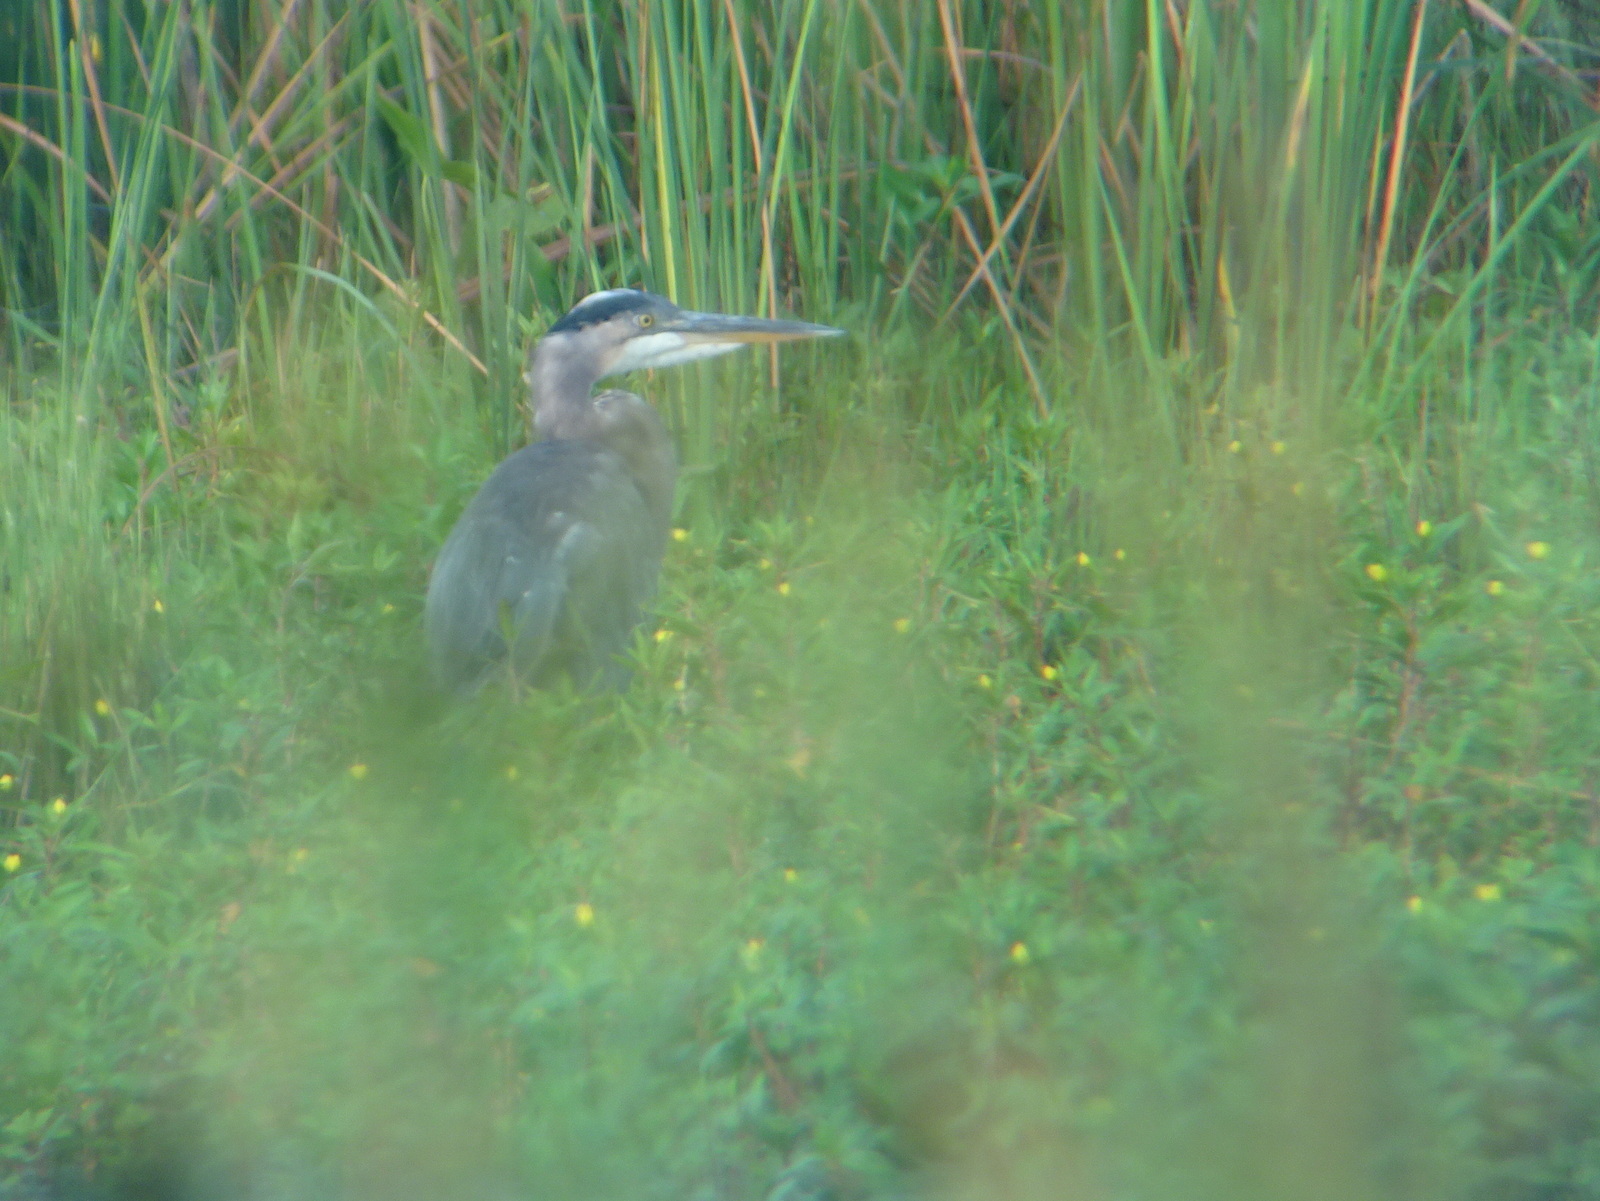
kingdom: Animalia
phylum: Chordata
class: Aves
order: Pelecaniformes
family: Ardeidae
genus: Ardea
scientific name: Ardea herodias
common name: Great blue heron
